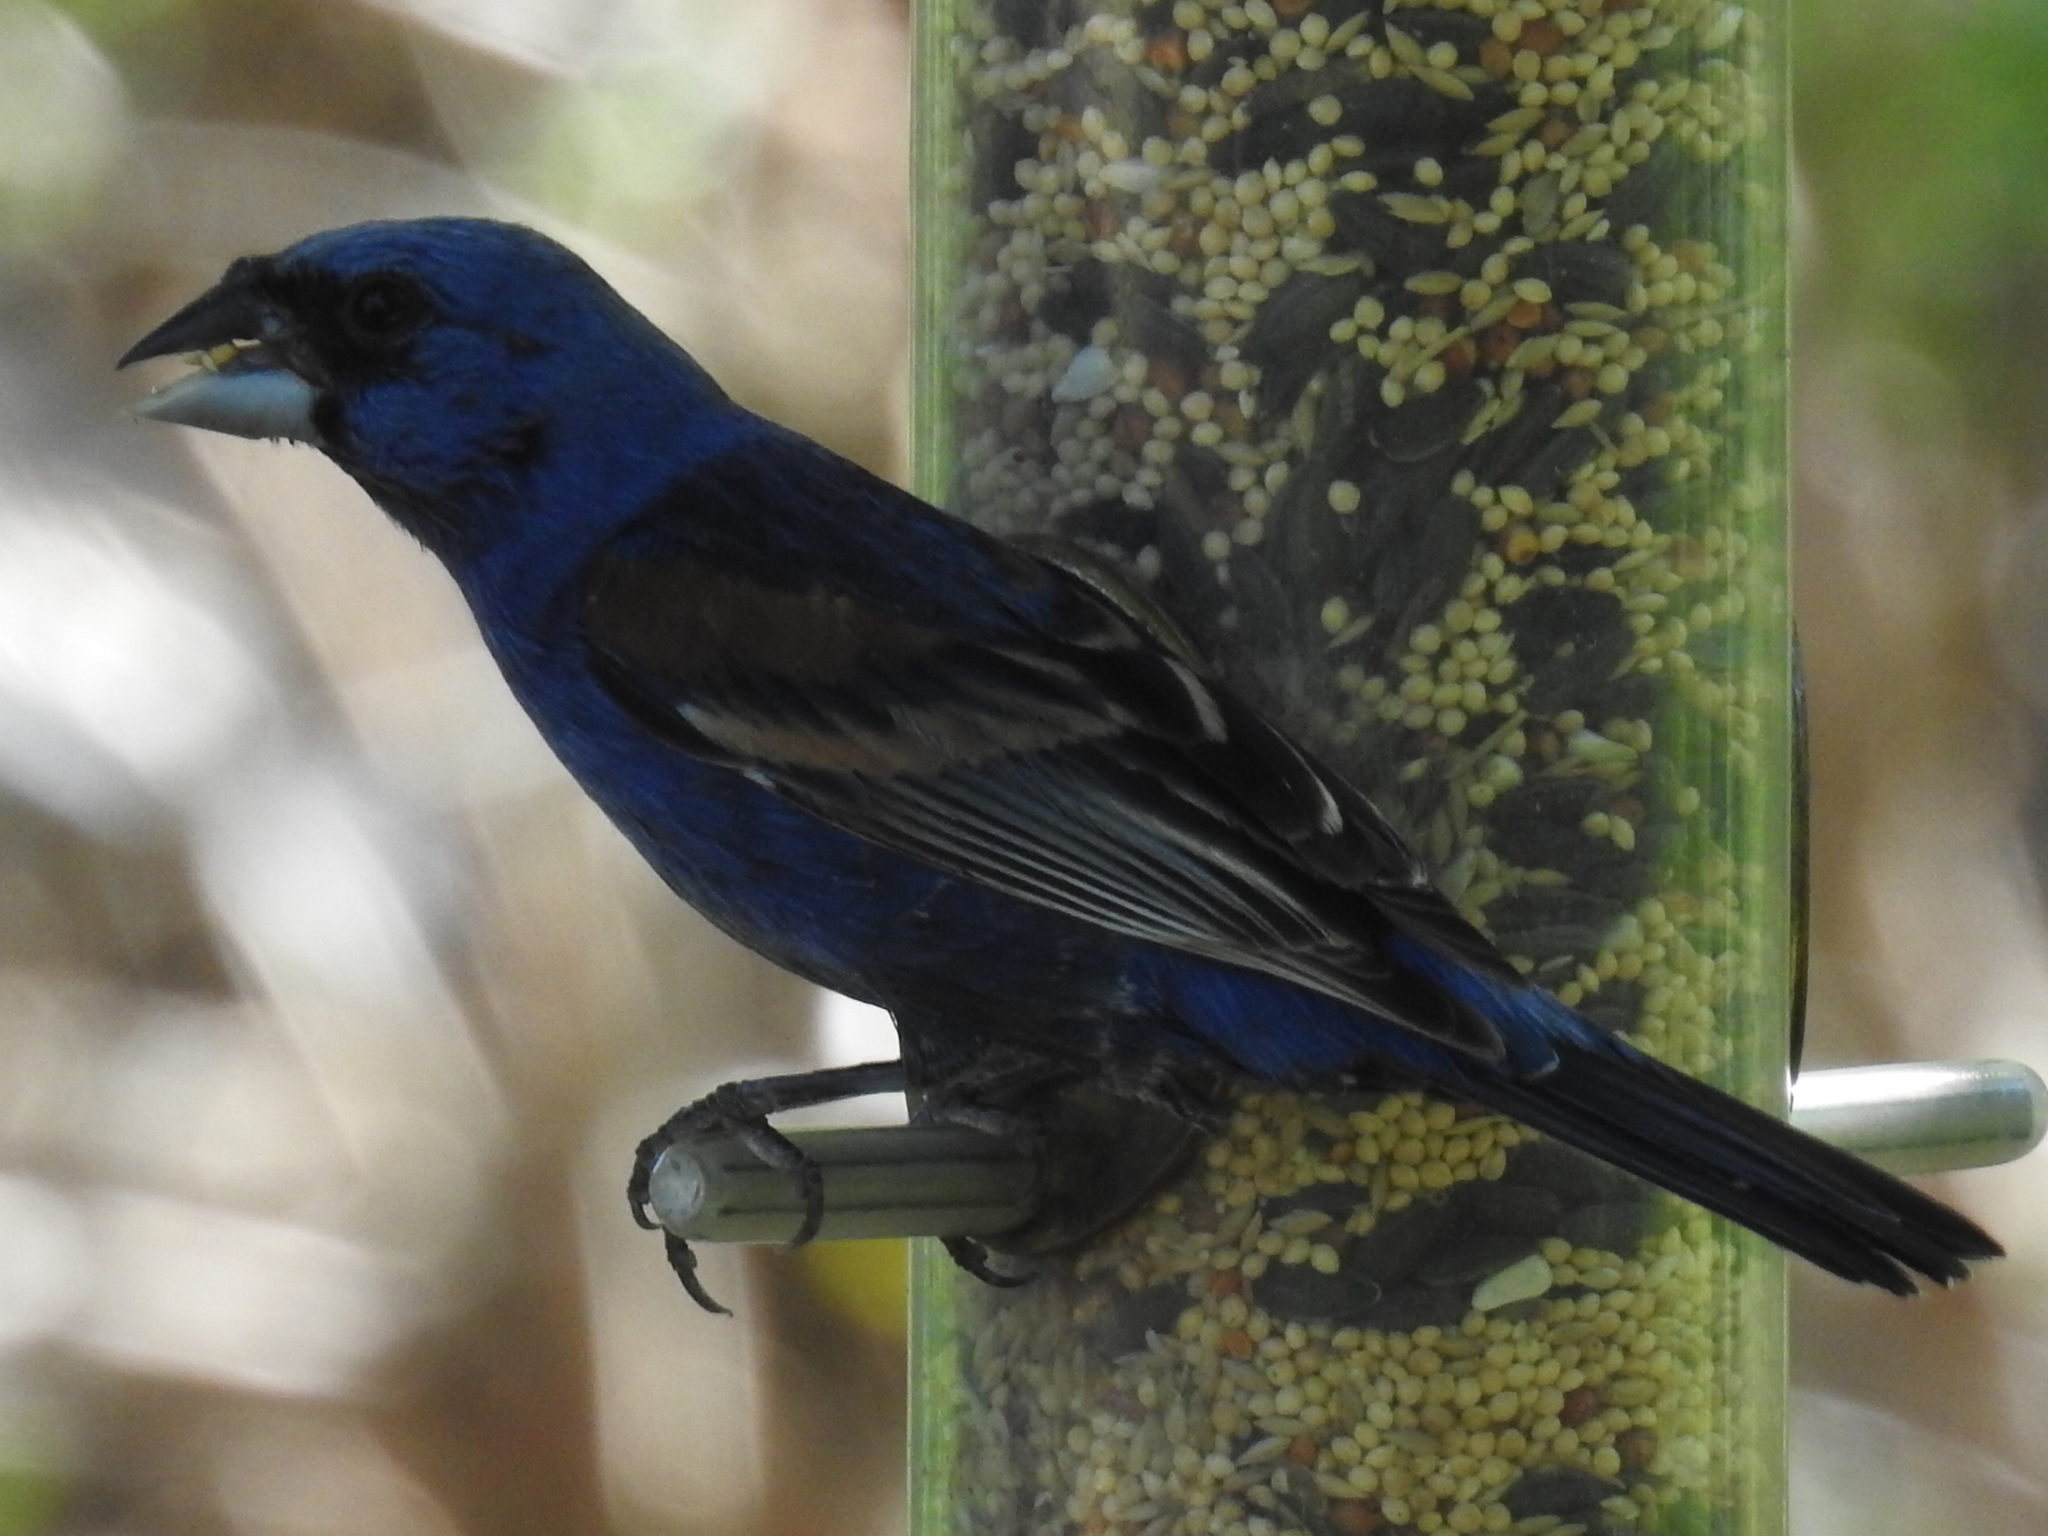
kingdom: Animalia
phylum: Chordata
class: Aves
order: Passeriformes
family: Cardinalidae
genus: Passerina
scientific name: Passerina caerulea
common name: Blue grosbeak
